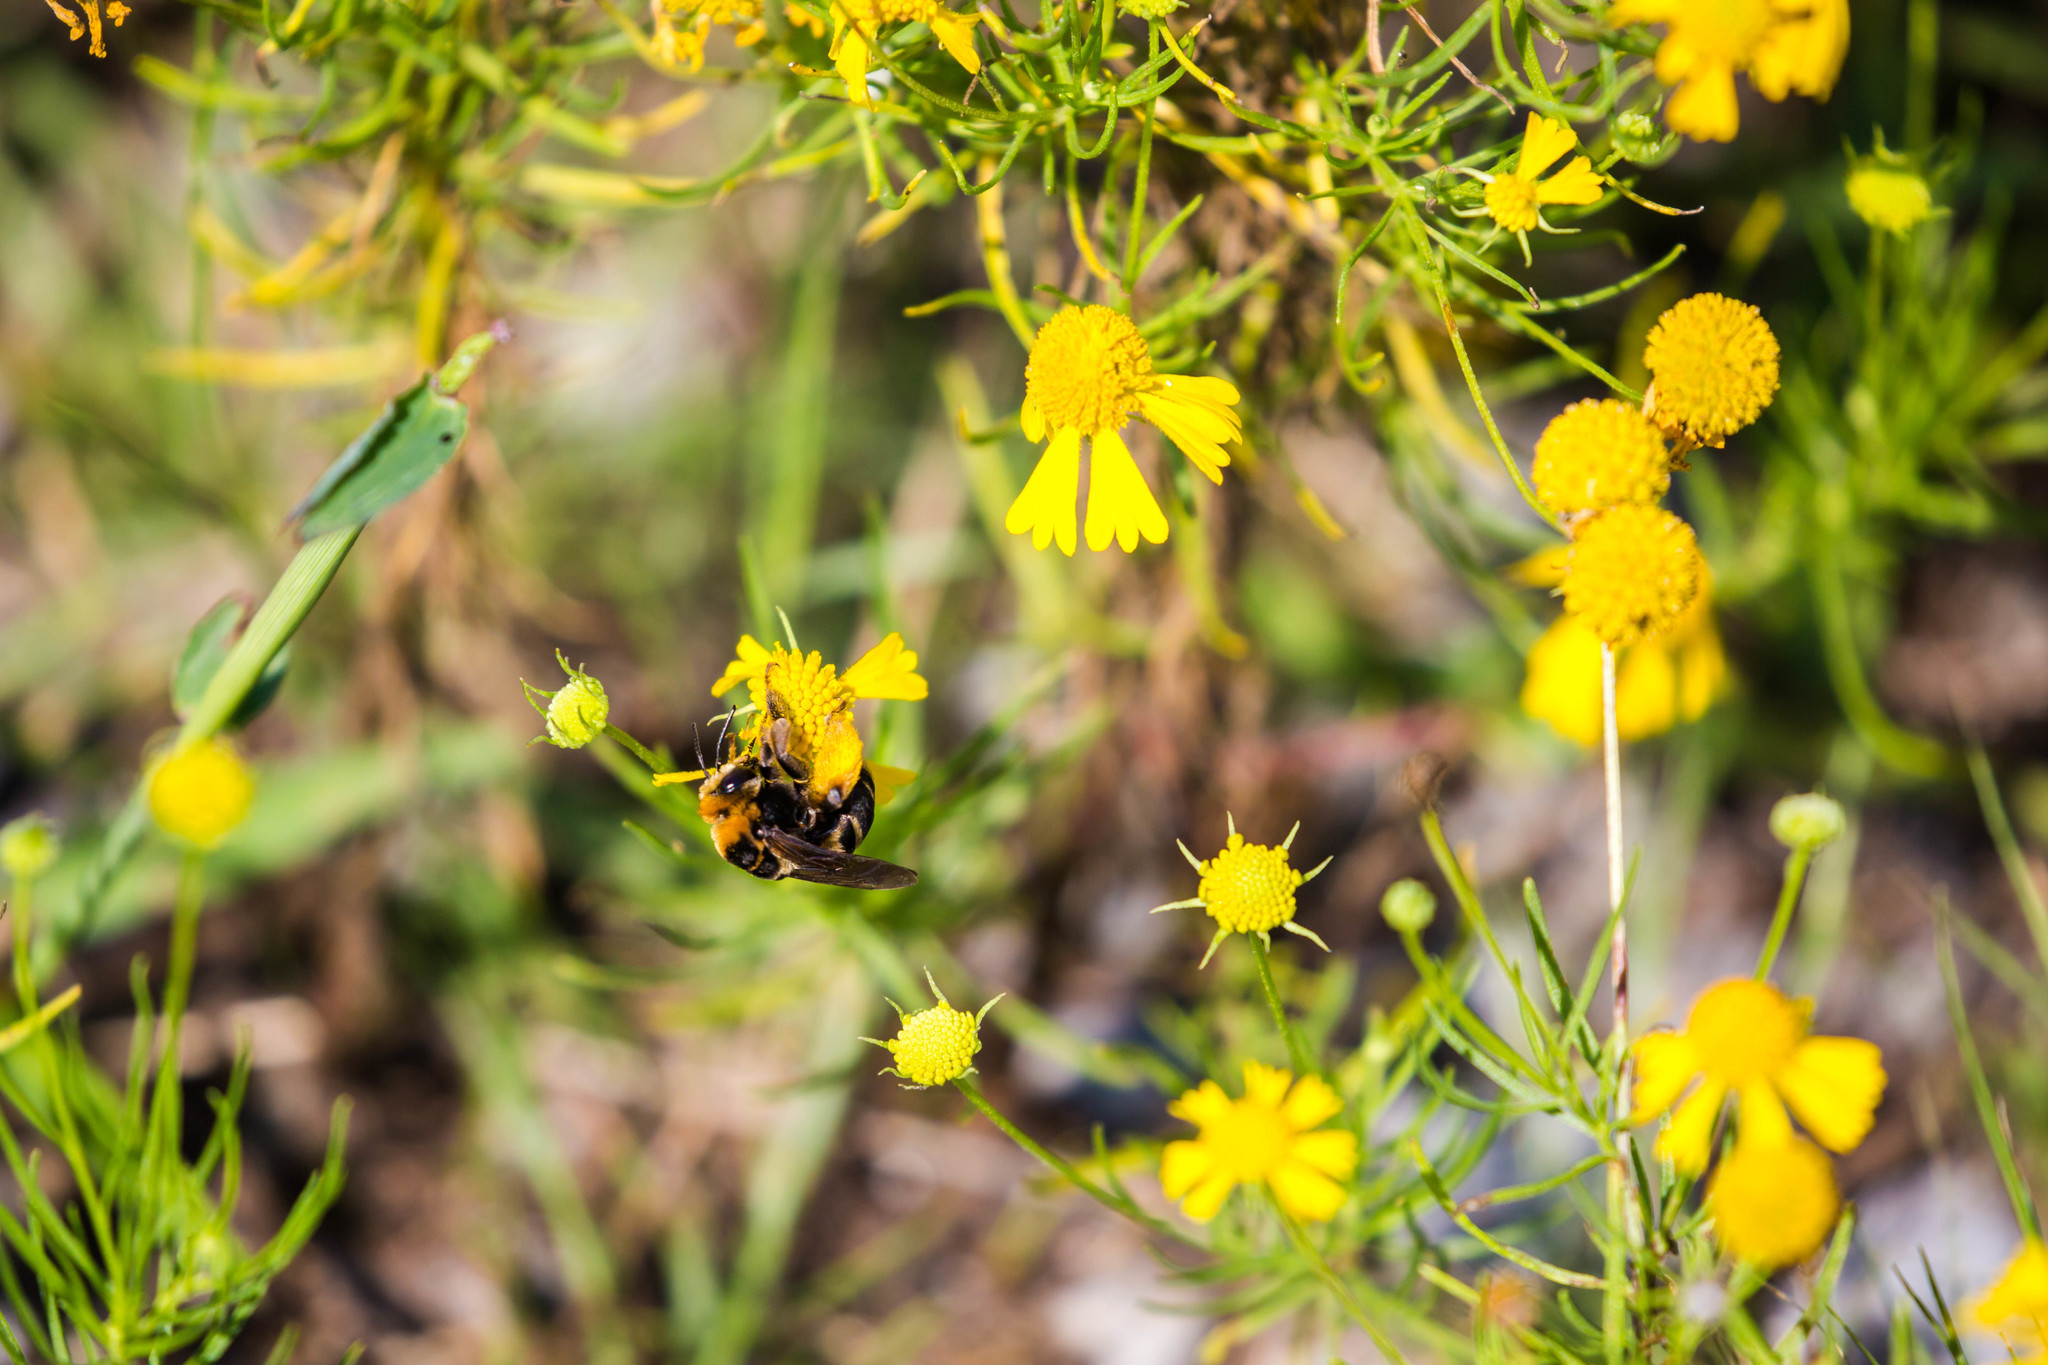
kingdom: Animalia
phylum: Arthropoda
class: Insecta
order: Hymenoptera
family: Apidae
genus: Svastra
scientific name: Svastra obliqua
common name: Oblique longhorn
